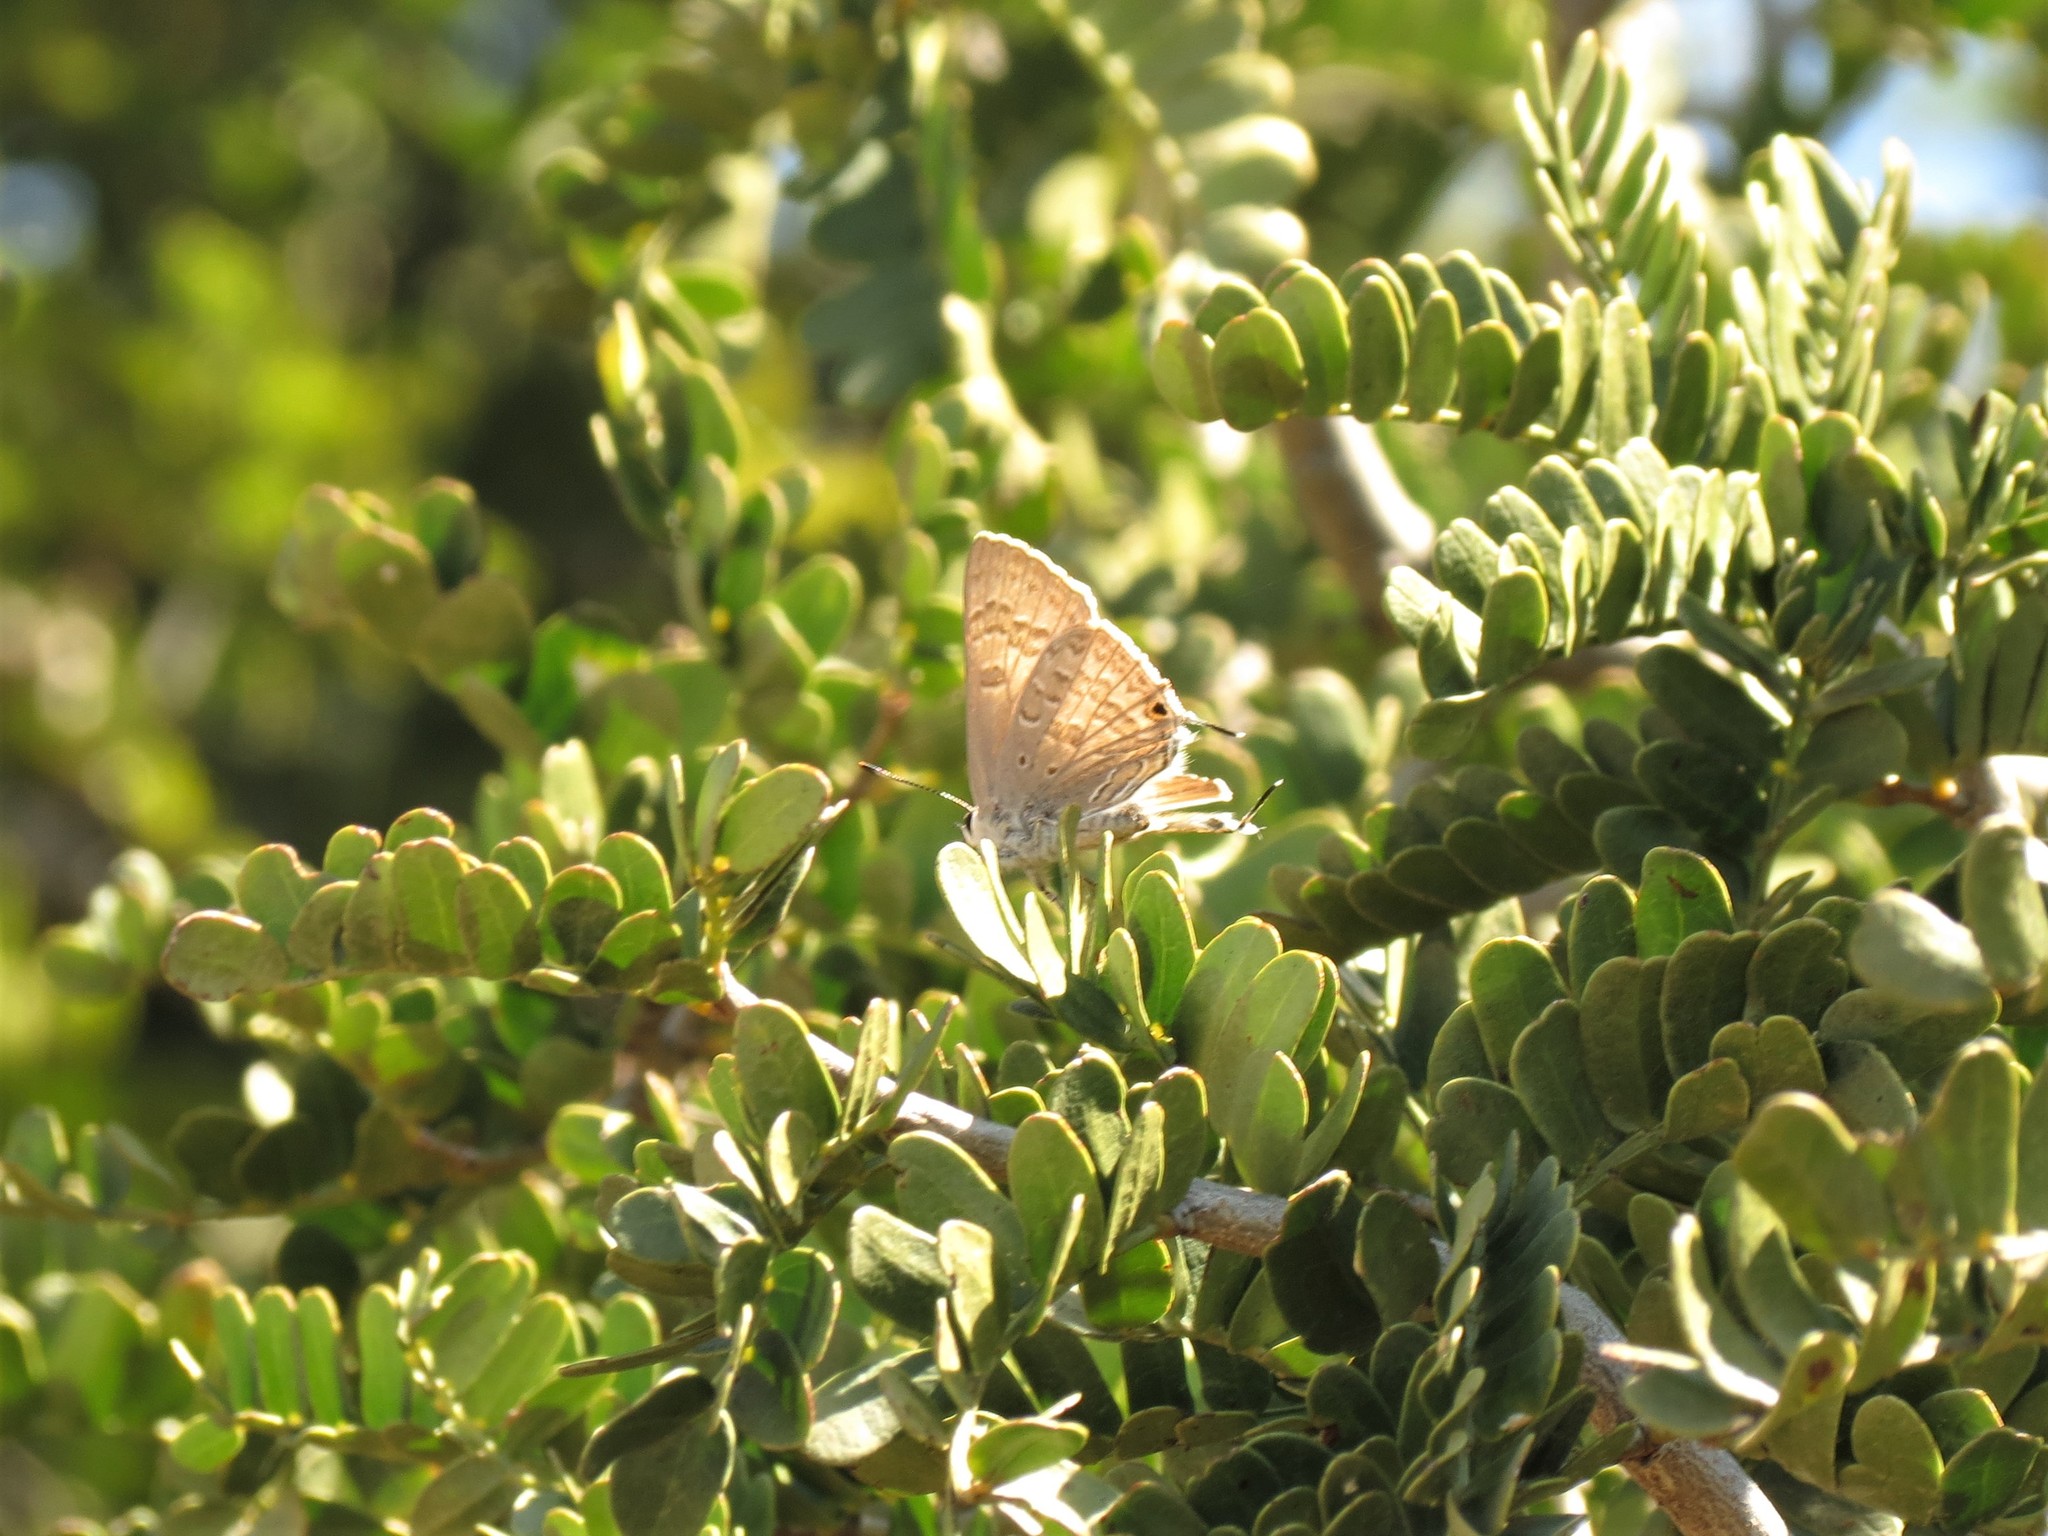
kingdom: Animalia
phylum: Arthropoda
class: Insecta
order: Lepidoptera
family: Lycaenidae
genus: Deudorix
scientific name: Deudorix antalus
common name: Brown playboy
